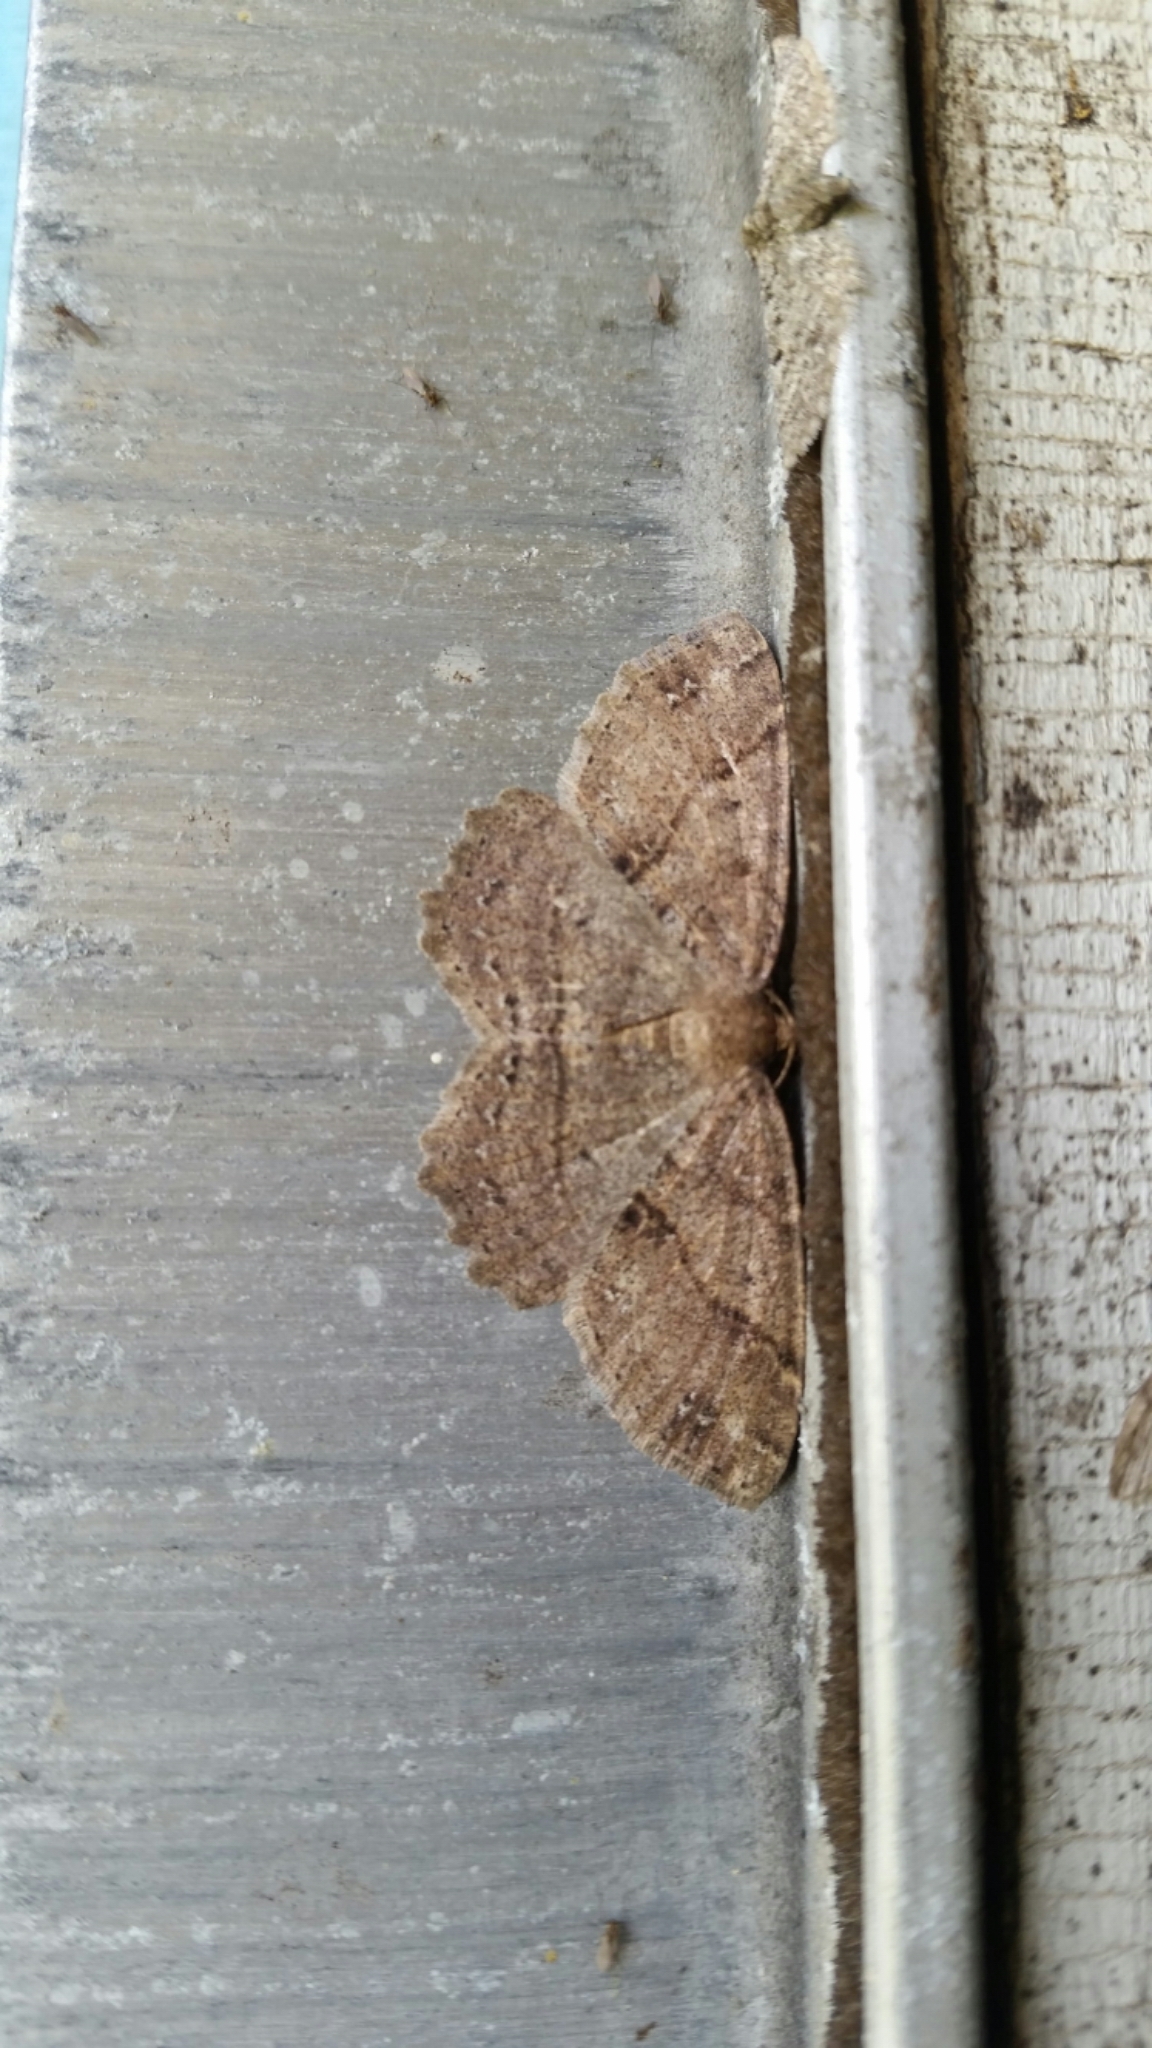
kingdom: Animalia
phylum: Arthropoda
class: Insecta
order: Lepidoptera
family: Geometridae
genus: Melanolophia
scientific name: Melanolophia signataria
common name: Signate melanolophia
